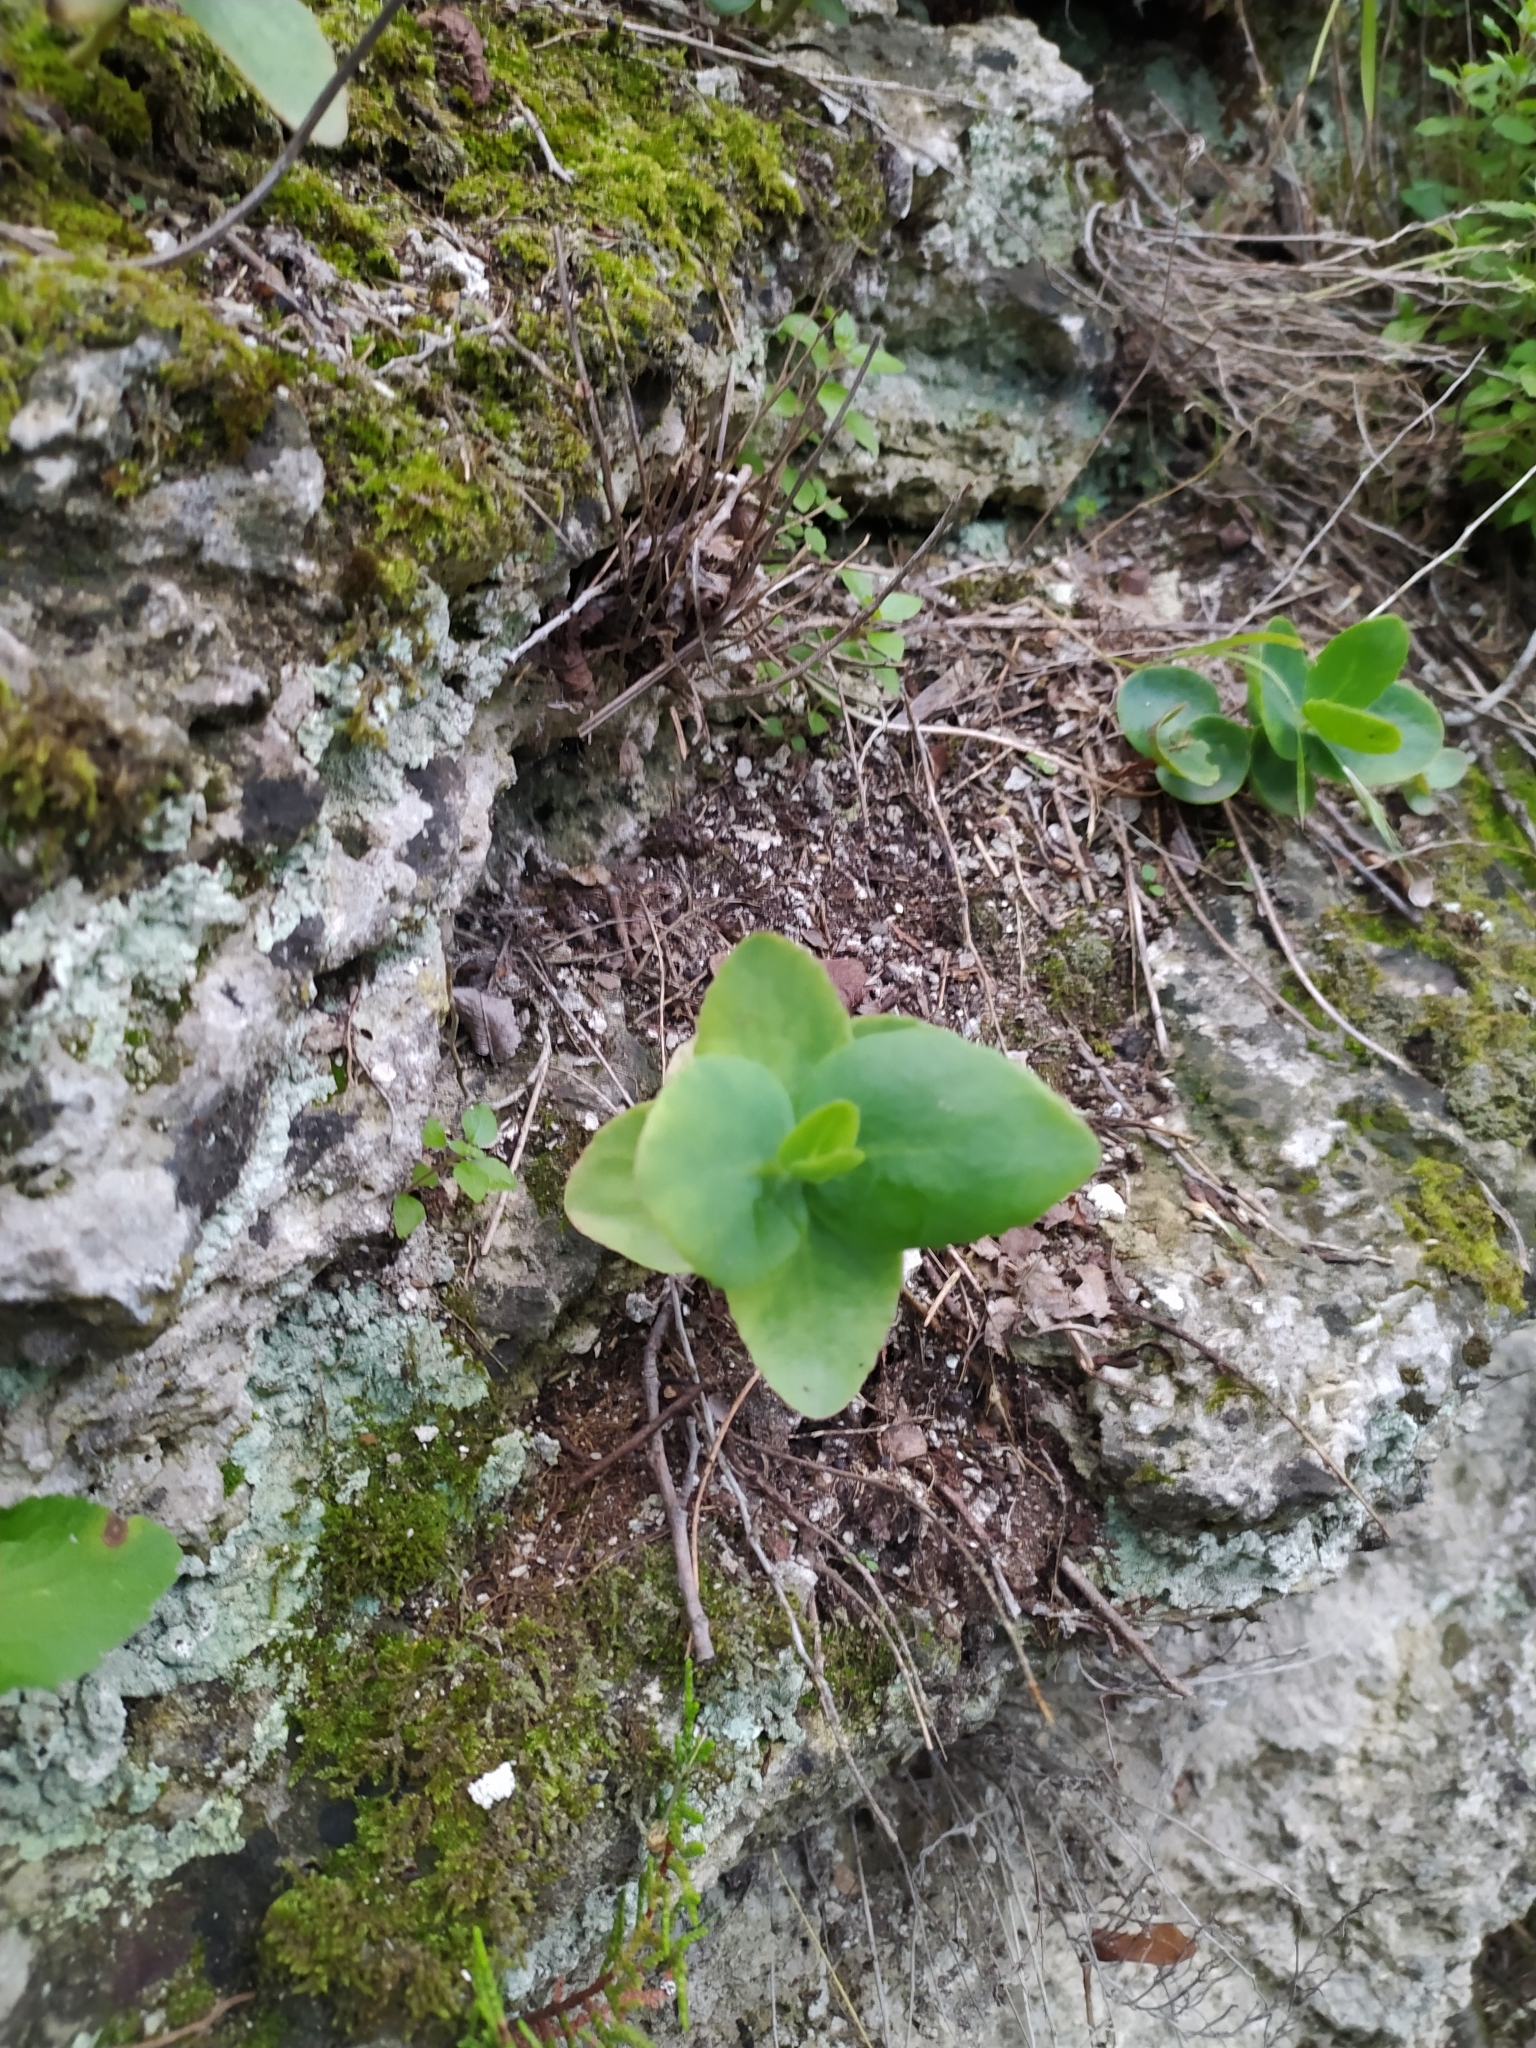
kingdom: Plantae
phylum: Tracheophyta
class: Magnoliopsida
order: Saxifragales
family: Crassulaceae
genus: Hylotelephium
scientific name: Hylotelephium maximum
